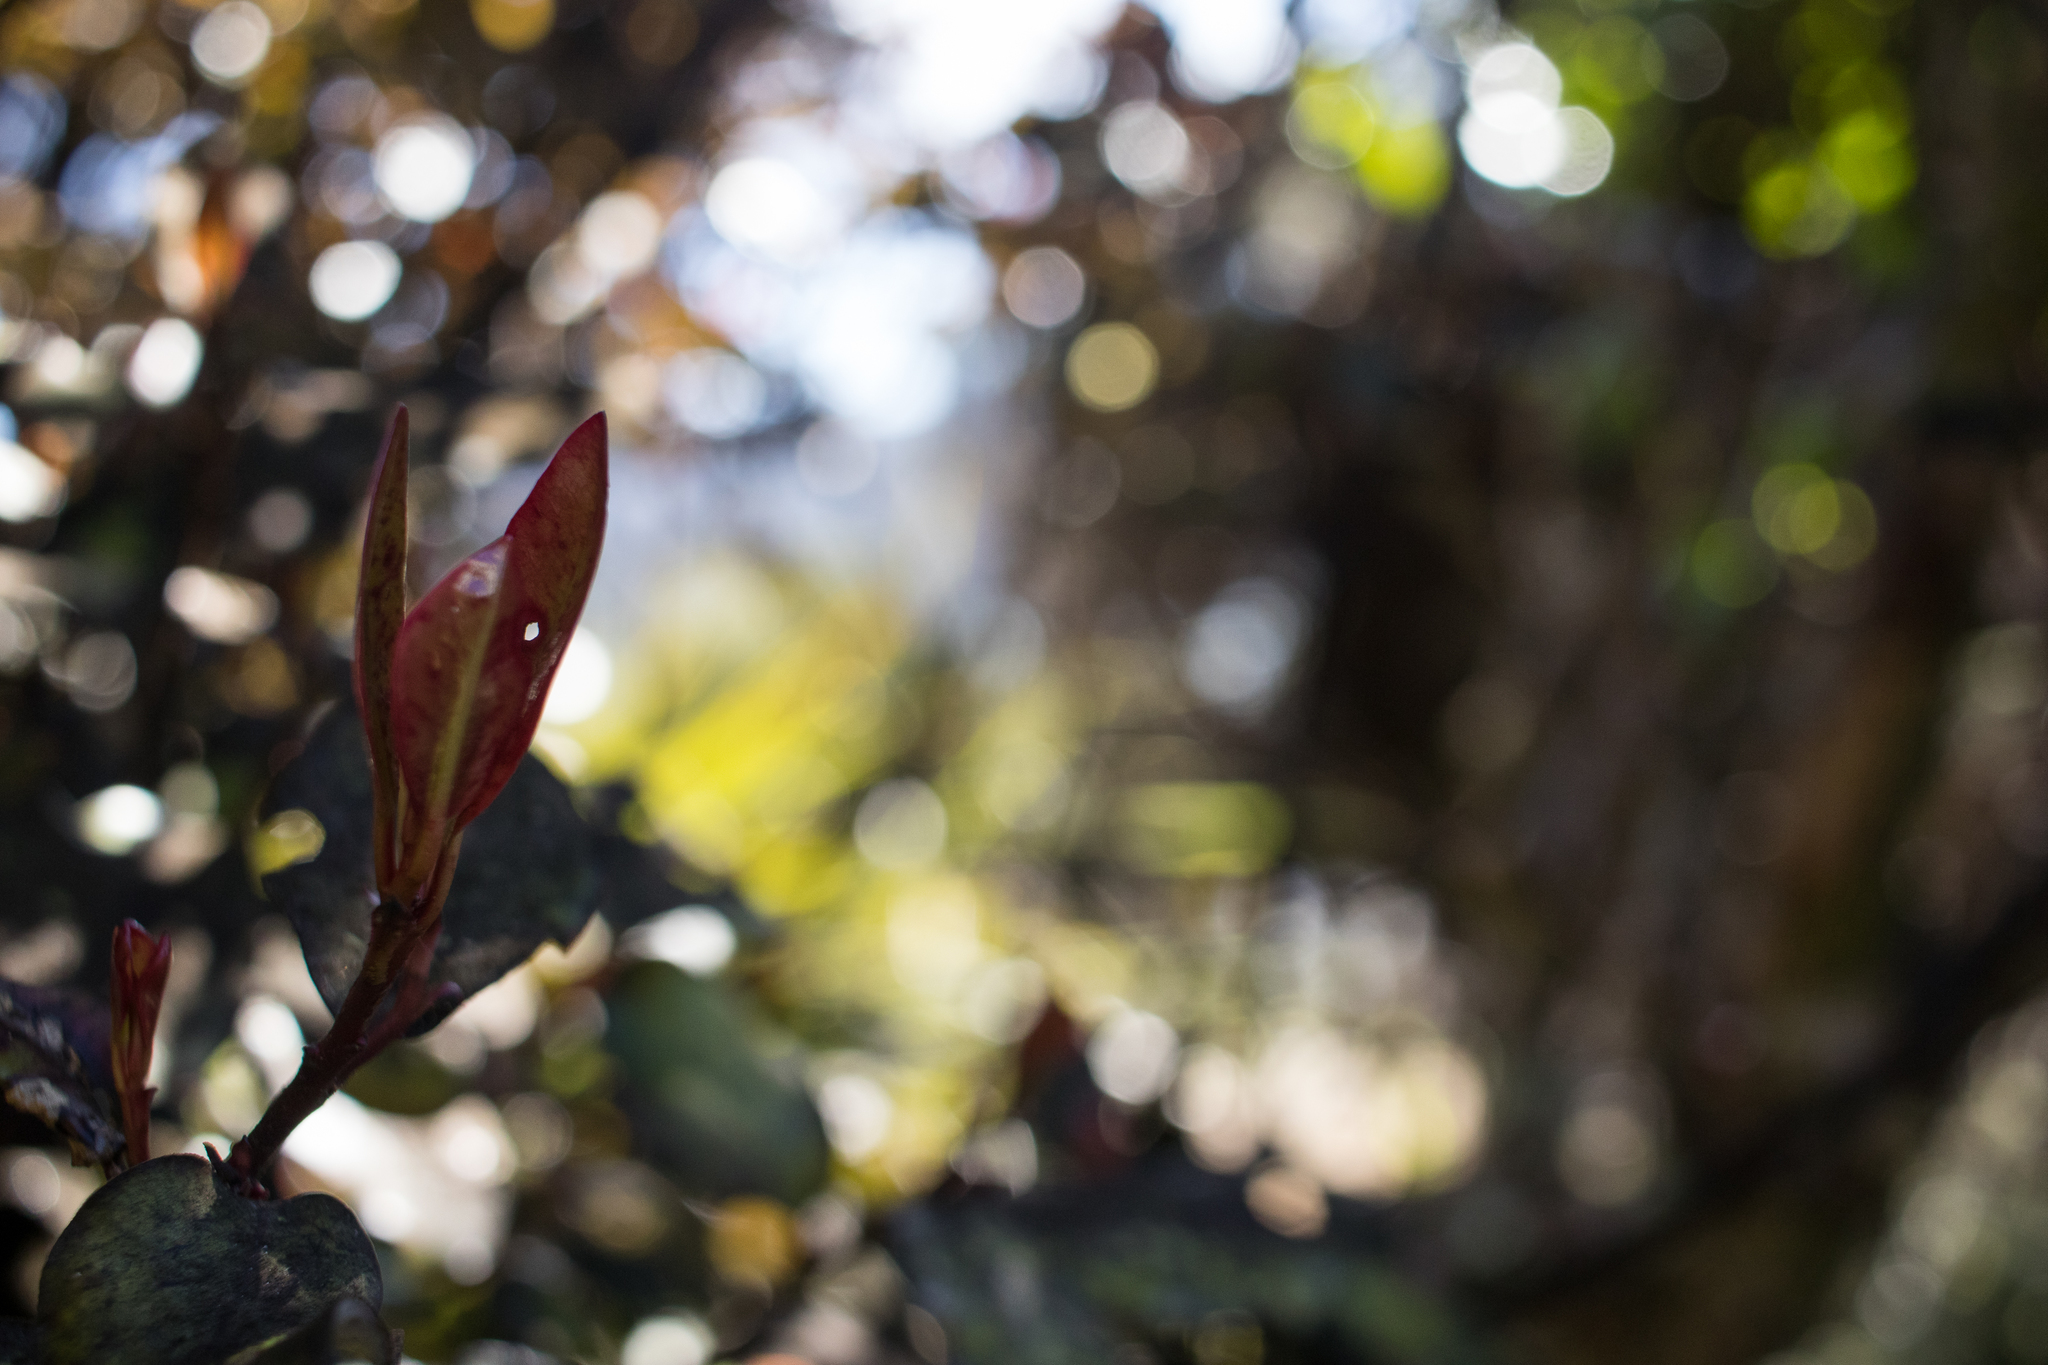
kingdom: Plantae
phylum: Tracheophyta
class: Magnoliopsida
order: Canellales
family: Winteraceae
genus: Pseudowintera
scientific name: Pseudowintera colorata
